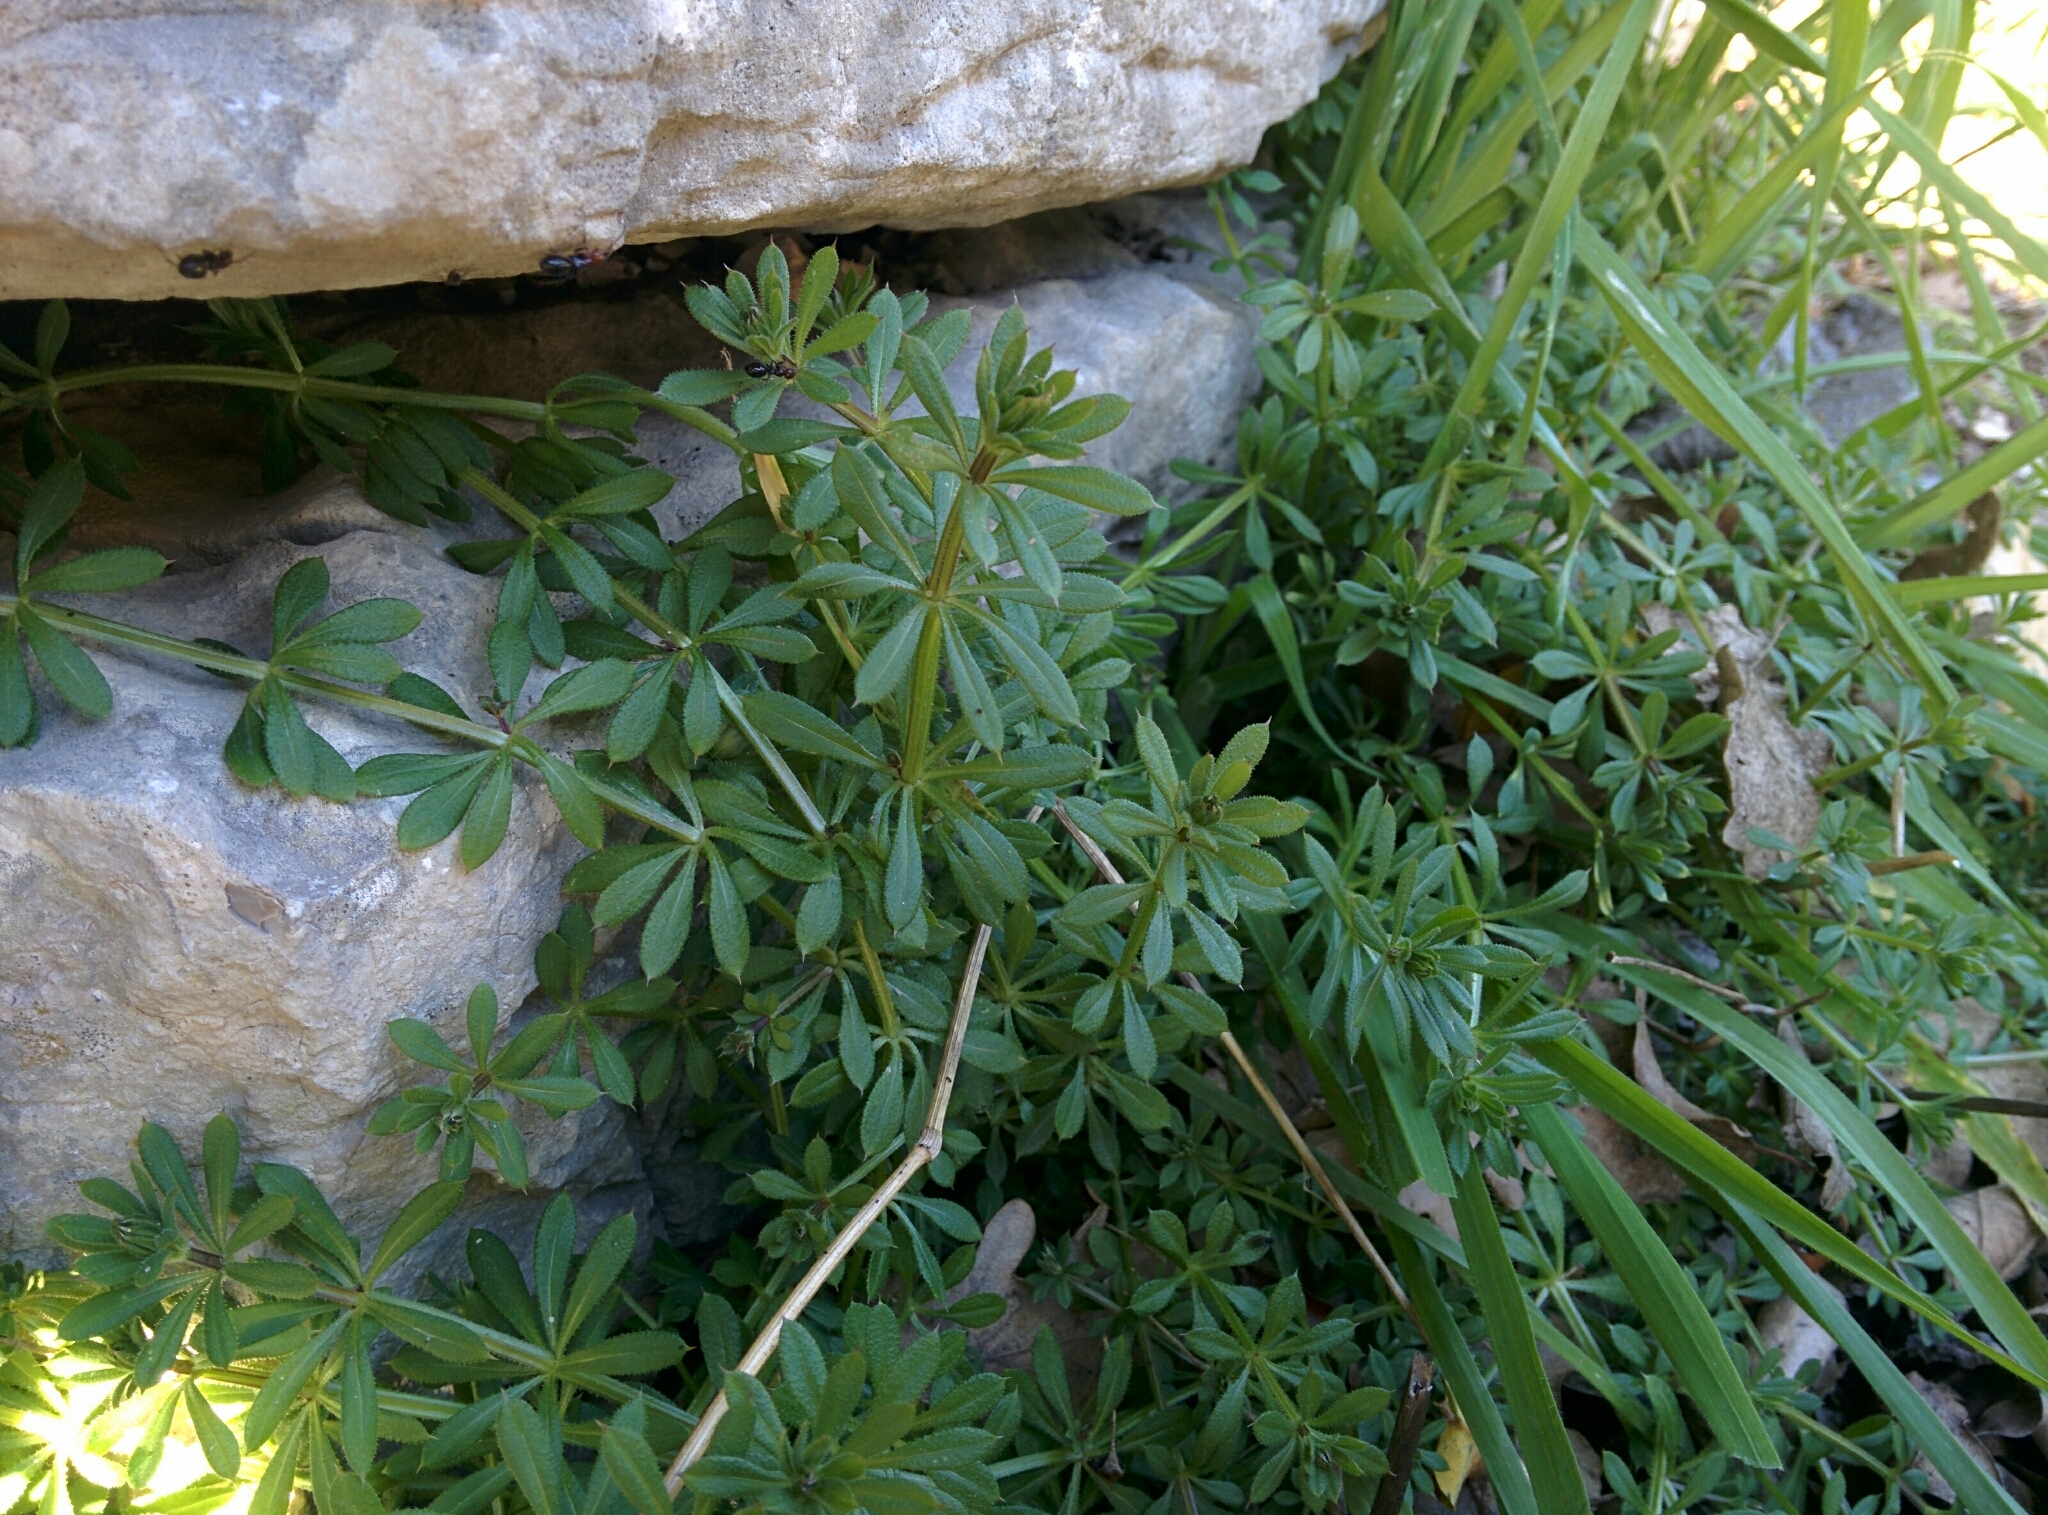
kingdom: Plantae
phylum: Tracheophyta
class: Magnoliopsida
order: Gentianales
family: Rubiaceae
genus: Galium
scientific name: Galium aparine
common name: Cleavers
